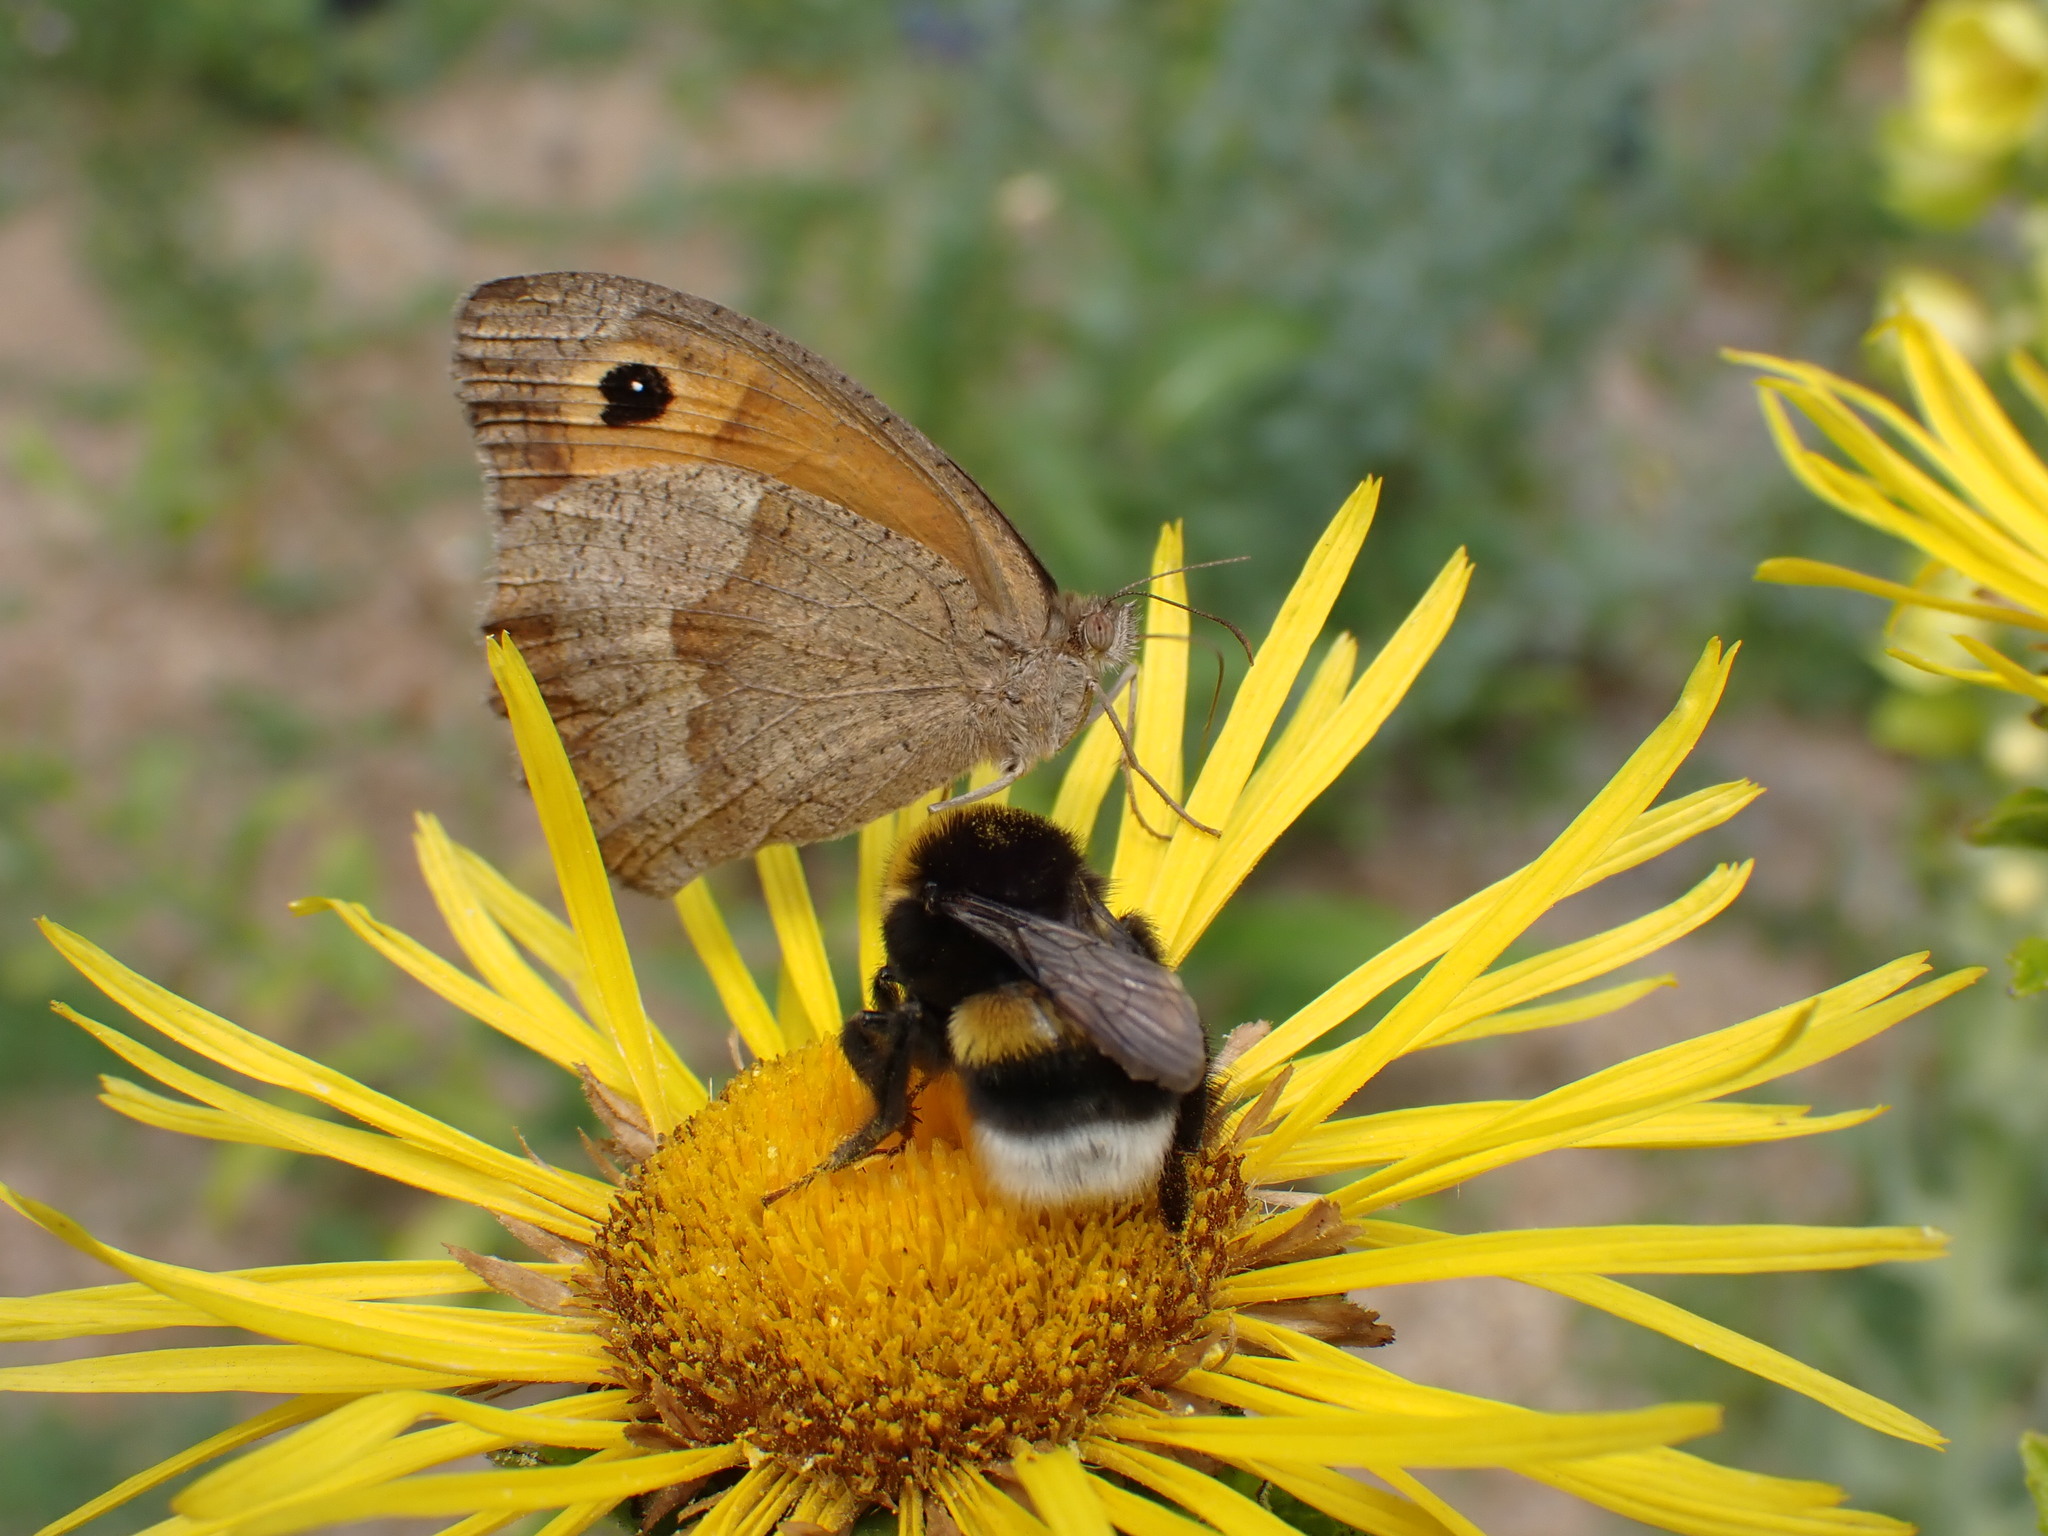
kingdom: Animalia
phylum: Arthropoda
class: Insecta
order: Lepidoptera
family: Nymphalidae
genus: Maniola
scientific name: Maniola jurtina
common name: Meadow brown
